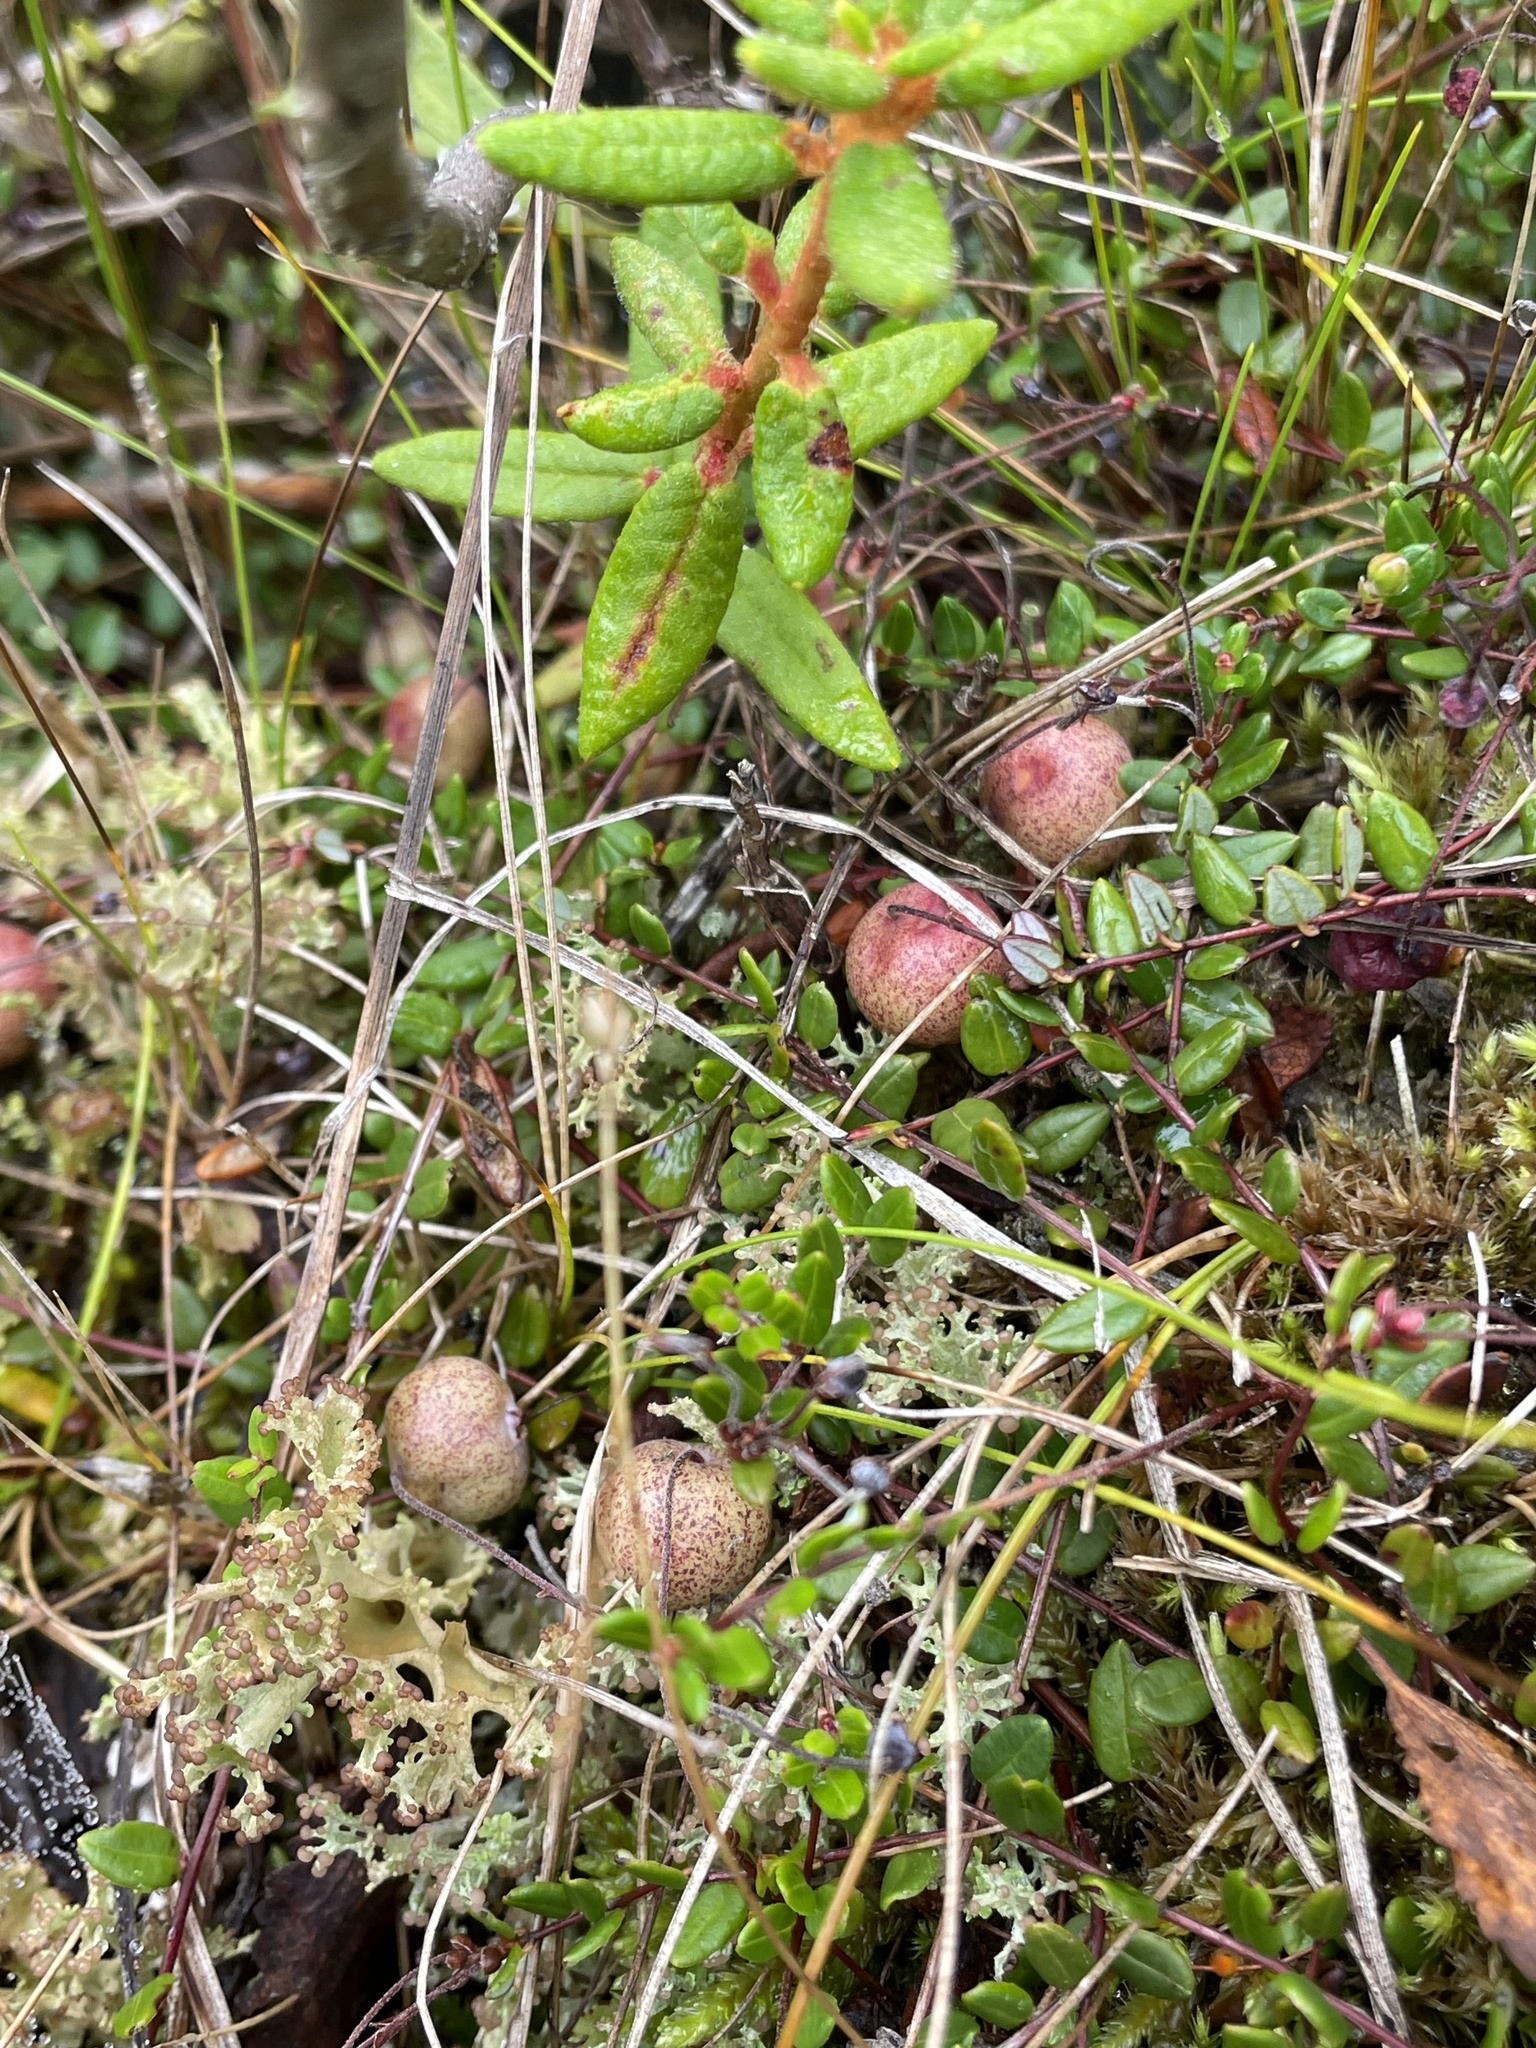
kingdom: Plantae
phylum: Tracheophyta
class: Magnoliopsida
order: Ericales
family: Ericaceae
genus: Vaccinium
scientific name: Vaccinium oxycoccos
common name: Cranberry
